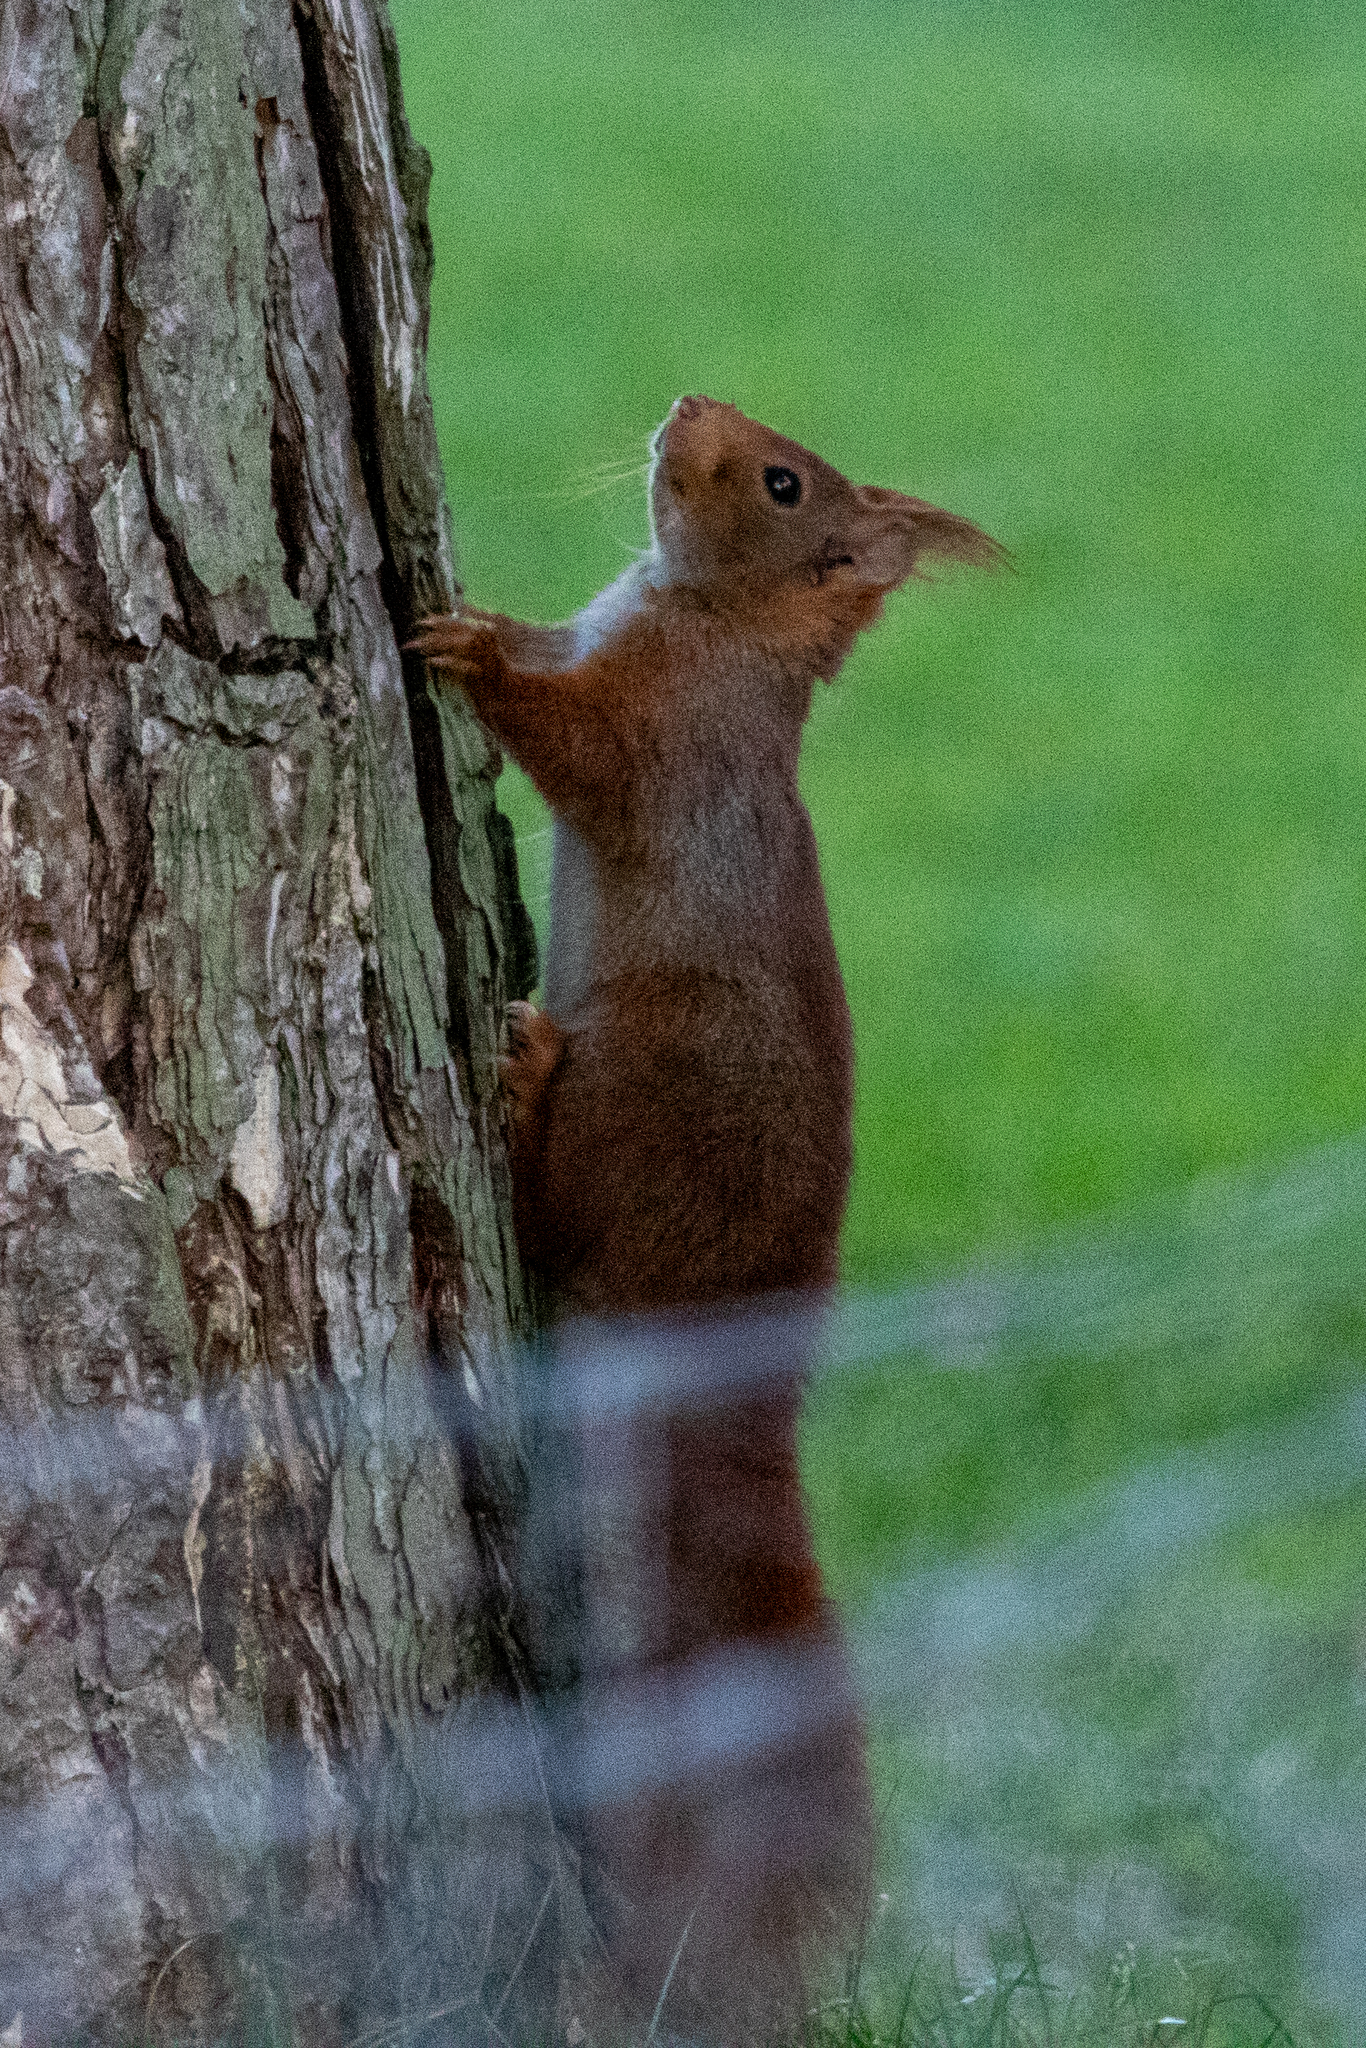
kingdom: Animalia
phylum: Chordata
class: Mammalia
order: Rodentia
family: Sciuridae
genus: Sciurus
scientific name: Sciurus vulgaris
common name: Eurasian red squirrel
